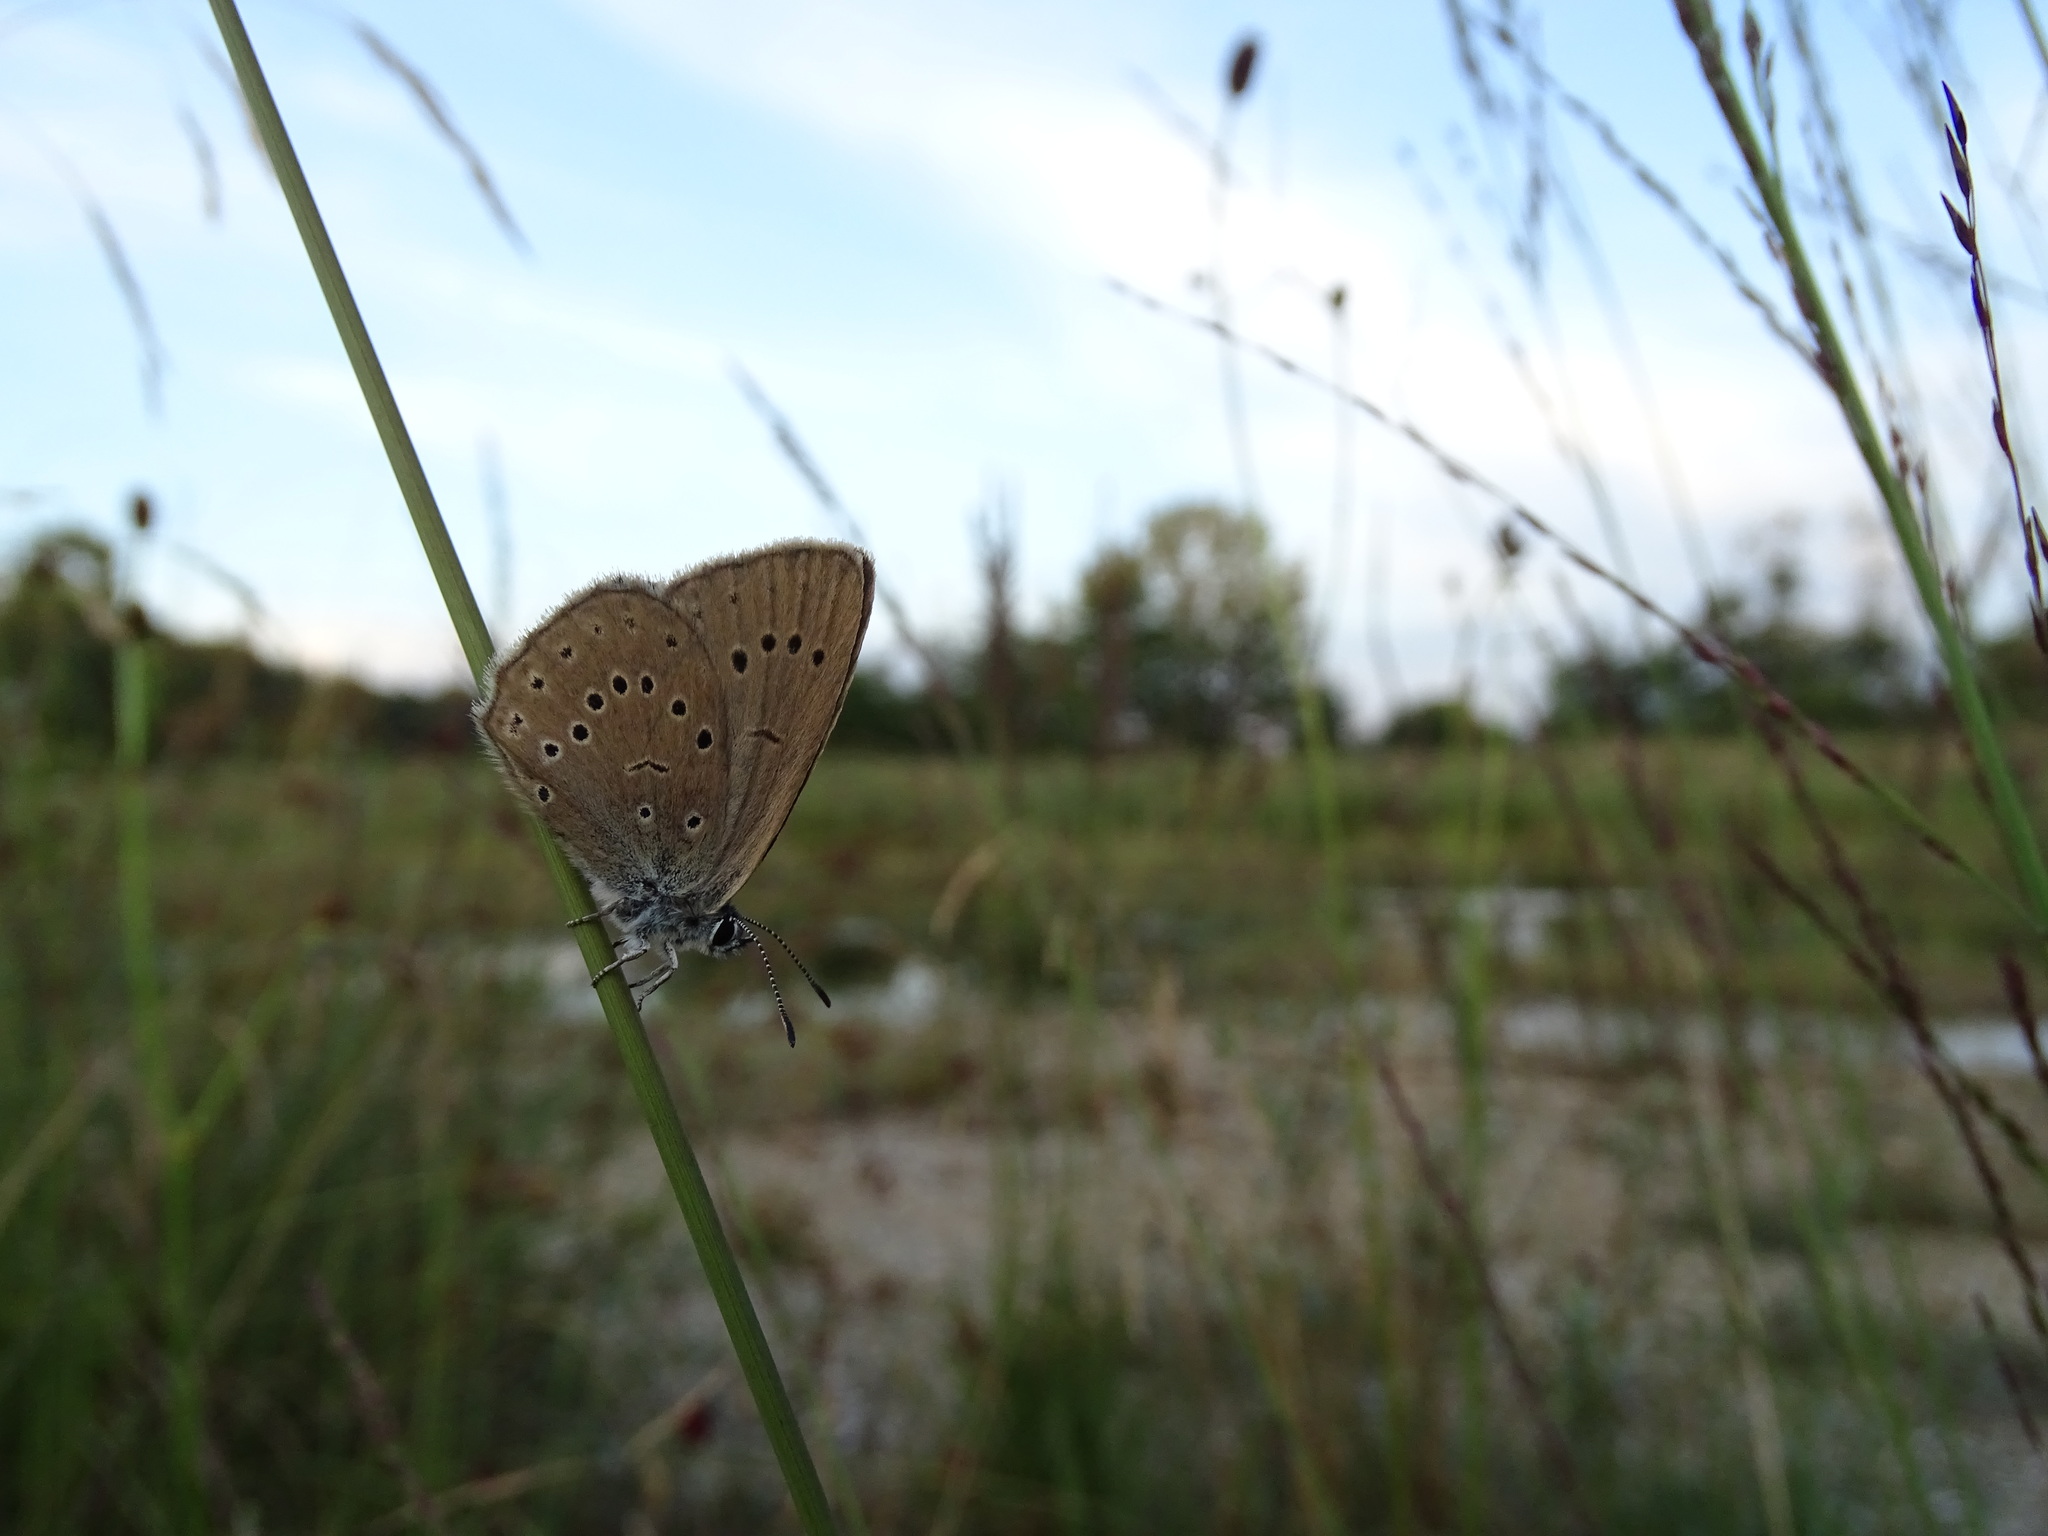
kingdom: Animalia
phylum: Arthropoda
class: Insecta
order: Lepidoptera
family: Lycaenidae
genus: Phengaris
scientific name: Phengaris teleius
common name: Scarce large blue
